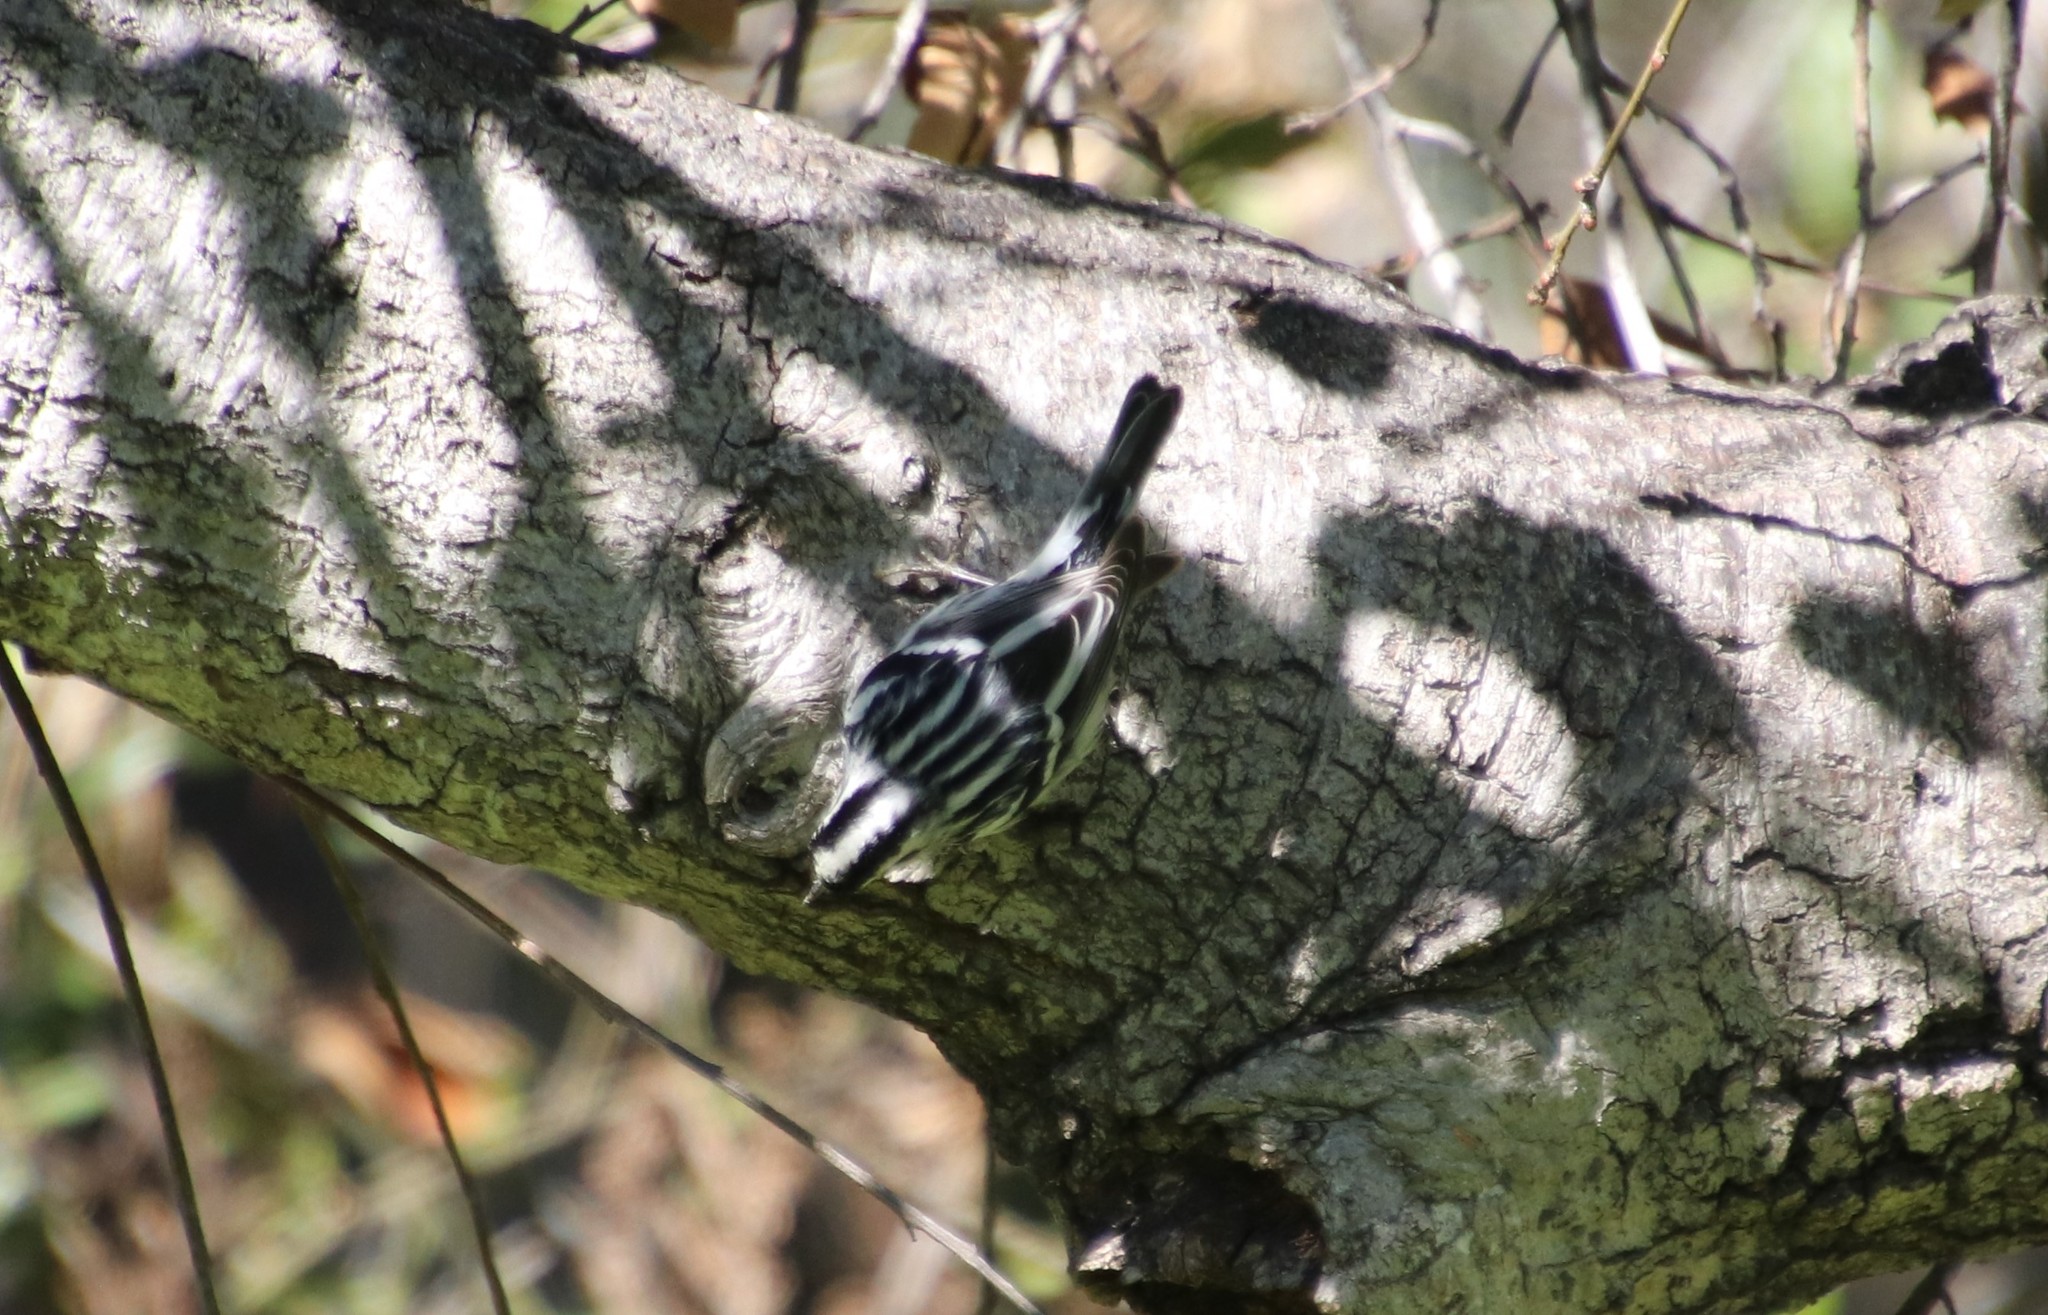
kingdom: Animalia
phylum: Chordata
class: Aves
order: Passeriformes
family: Parulidae
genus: Mniotilta
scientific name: Mniotilta varia
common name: Black-and-white warbler
